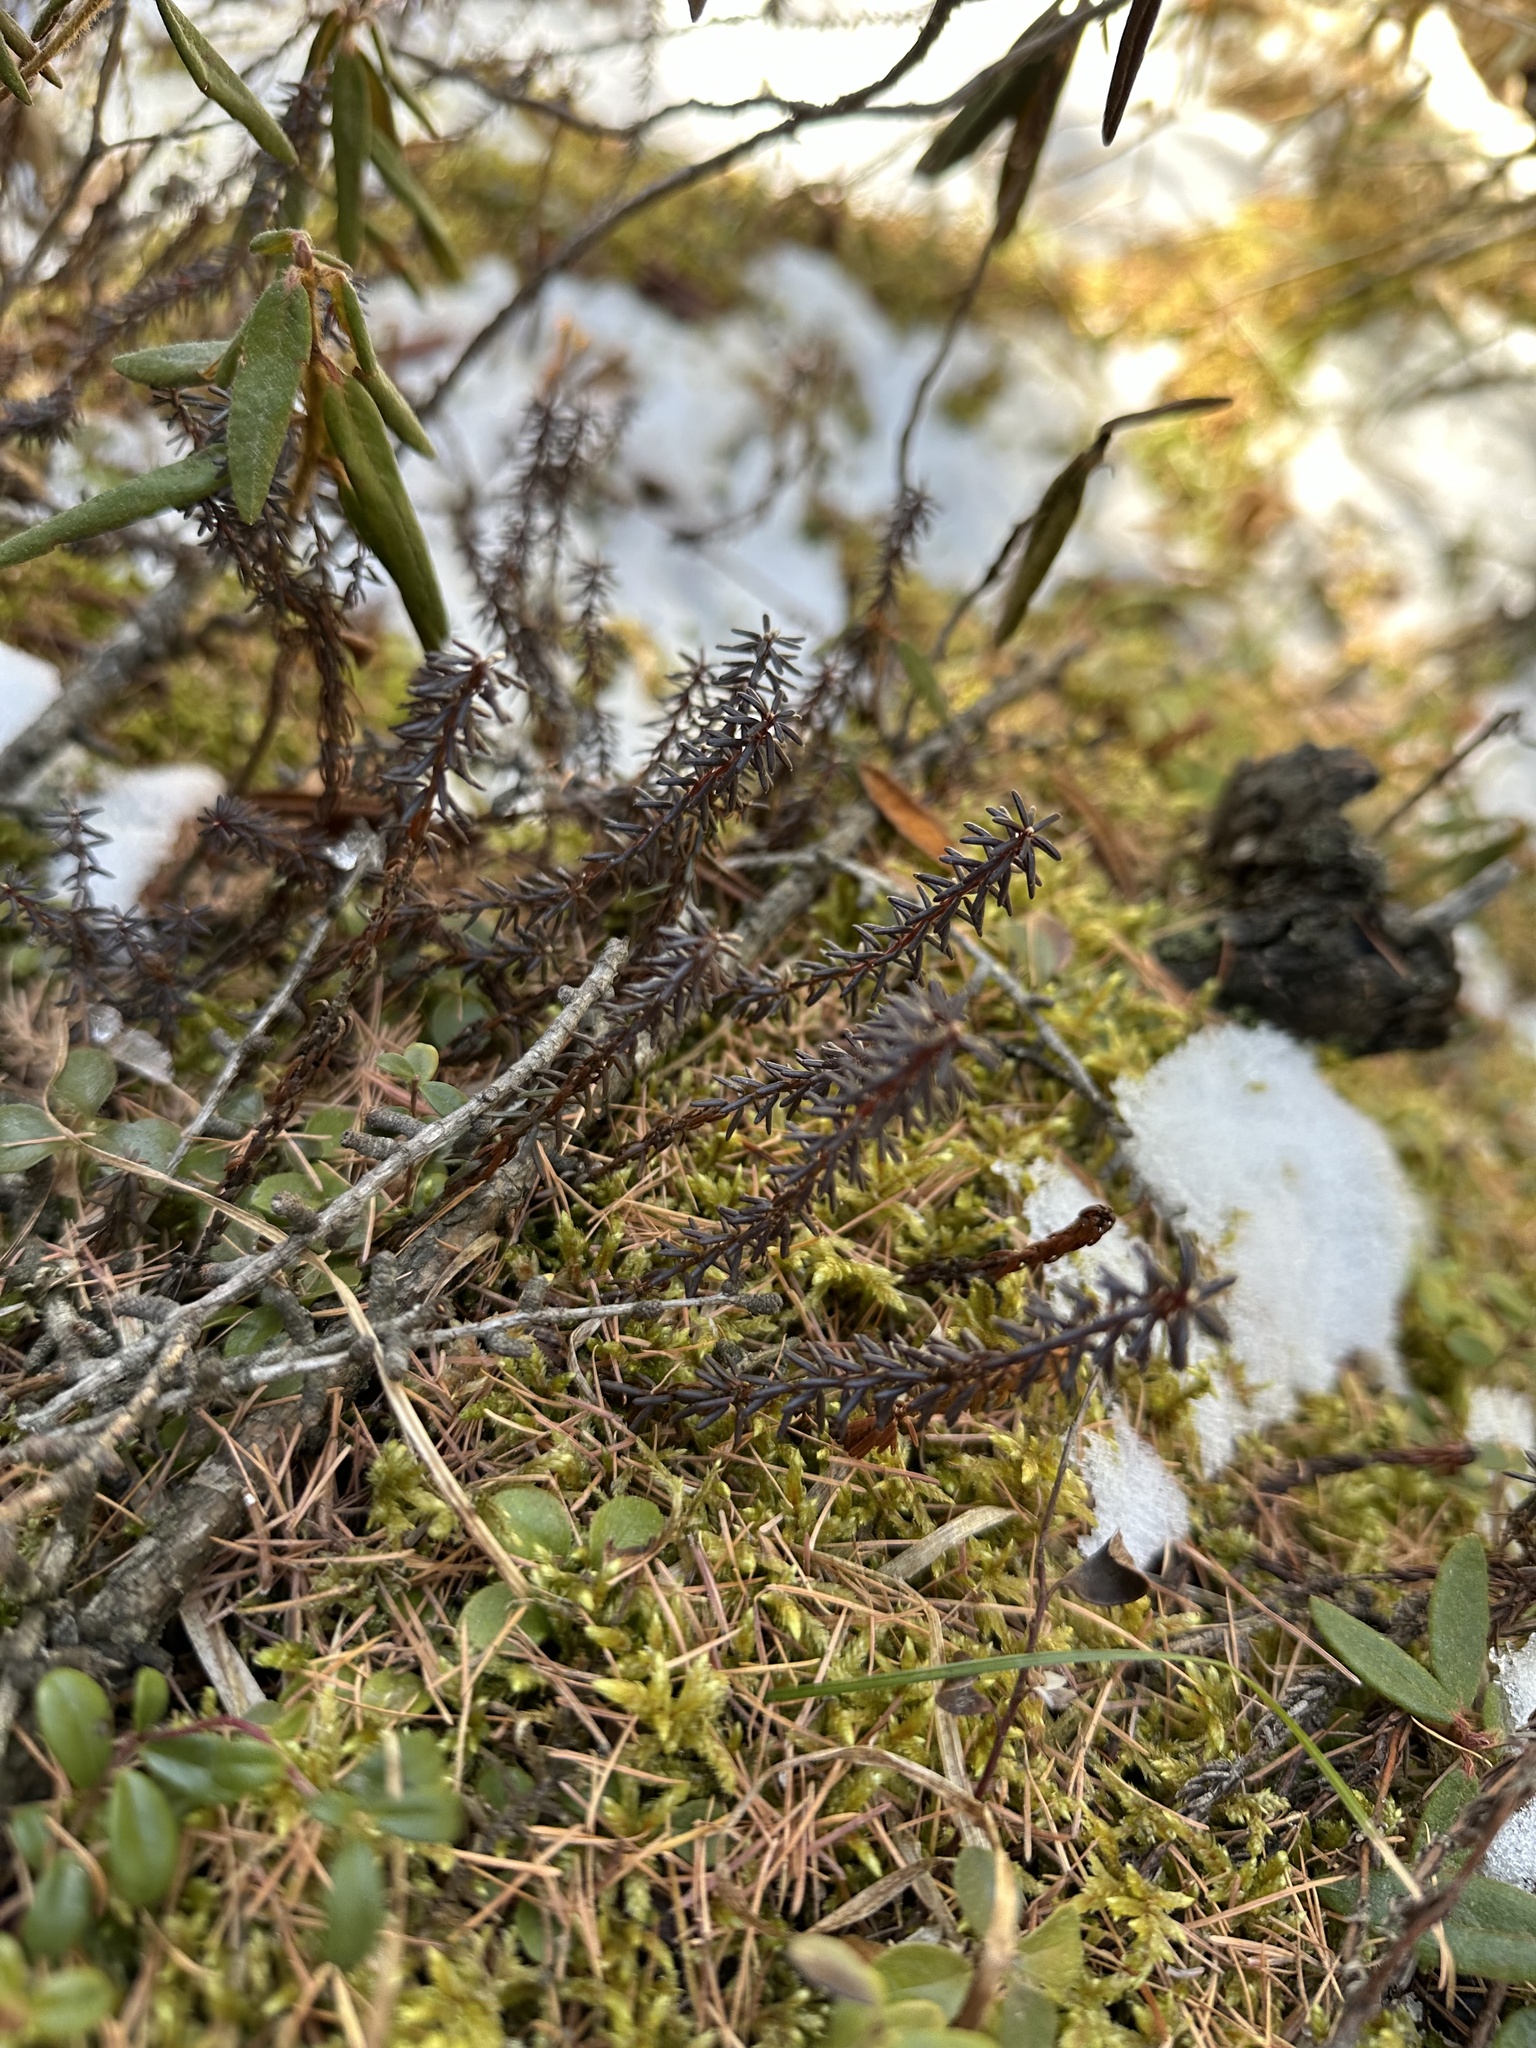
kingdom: Plantae
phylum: Tracheophyta
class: Magnoliopsida
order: Ericales
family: Ericaceae
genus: Empetrum
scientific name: Empetrum nigrum
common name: Black crowberry
